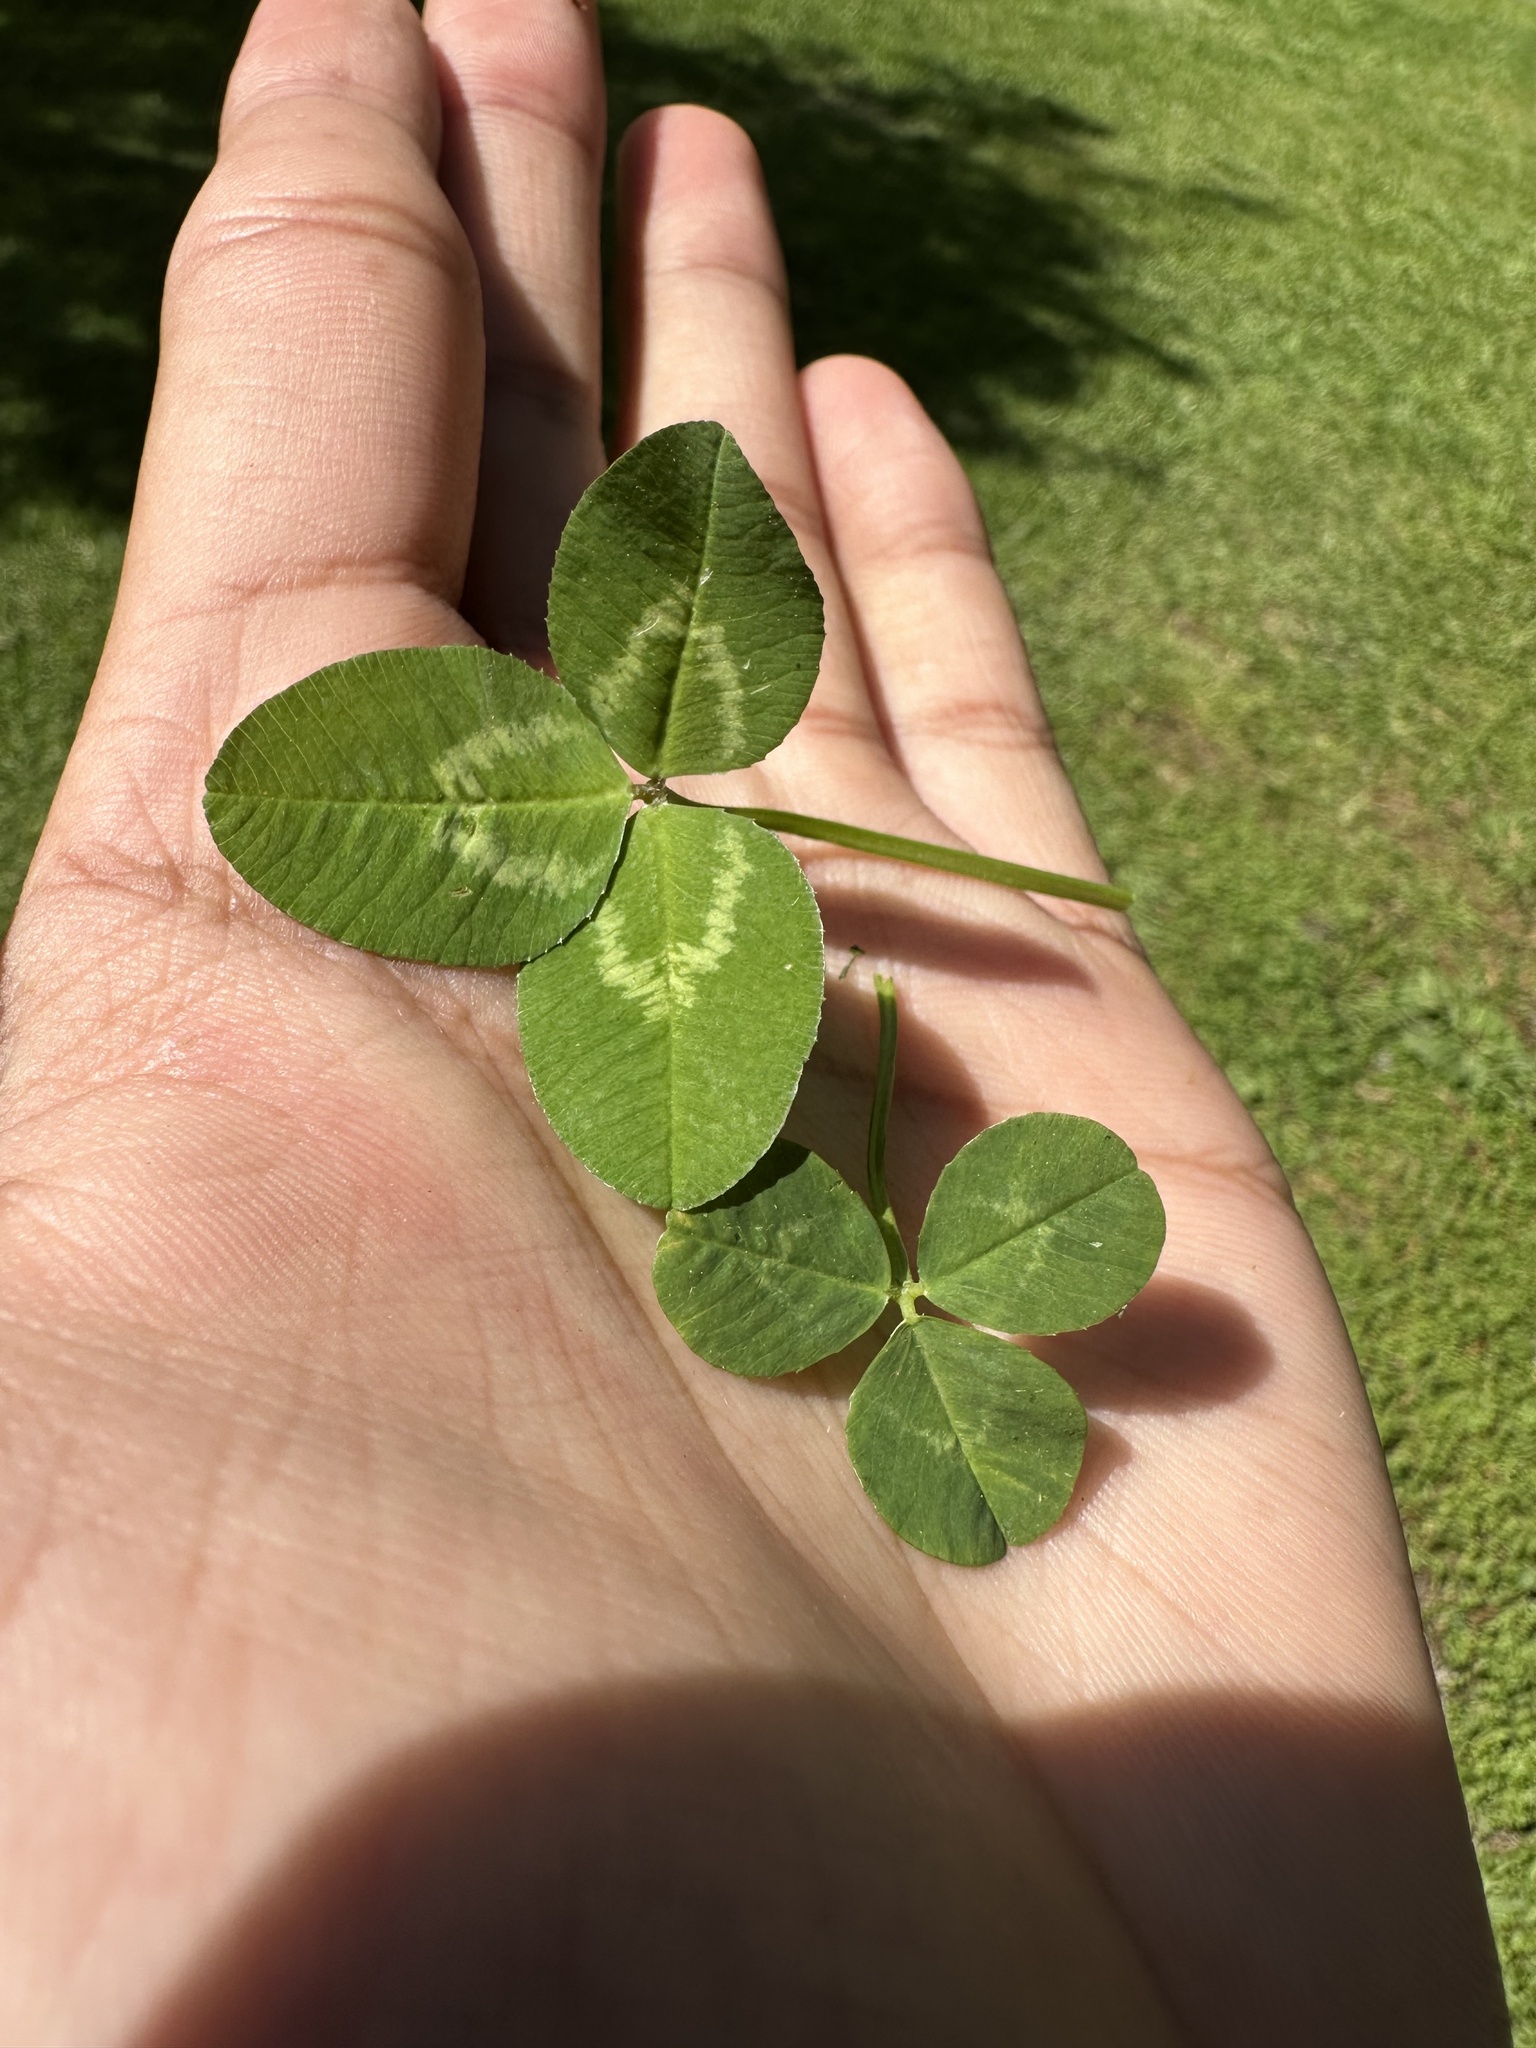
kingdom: Plantae
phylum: Tracheophyta
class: Magnoliopsida
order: Fabales
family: Fabaceae
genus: Trifolium
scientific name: Trifolium repens
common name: White clover
